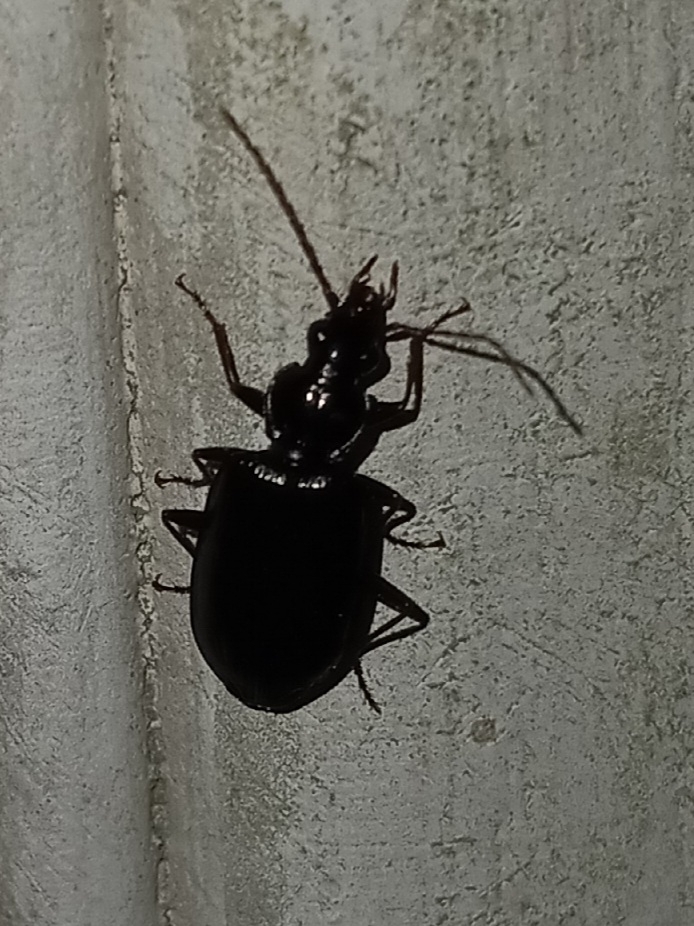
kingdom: Animalia
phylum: Arthropoda
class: Insecta
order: Coleoptera
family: Carabidae
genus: Platynus
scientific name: Platynus cincticollis
